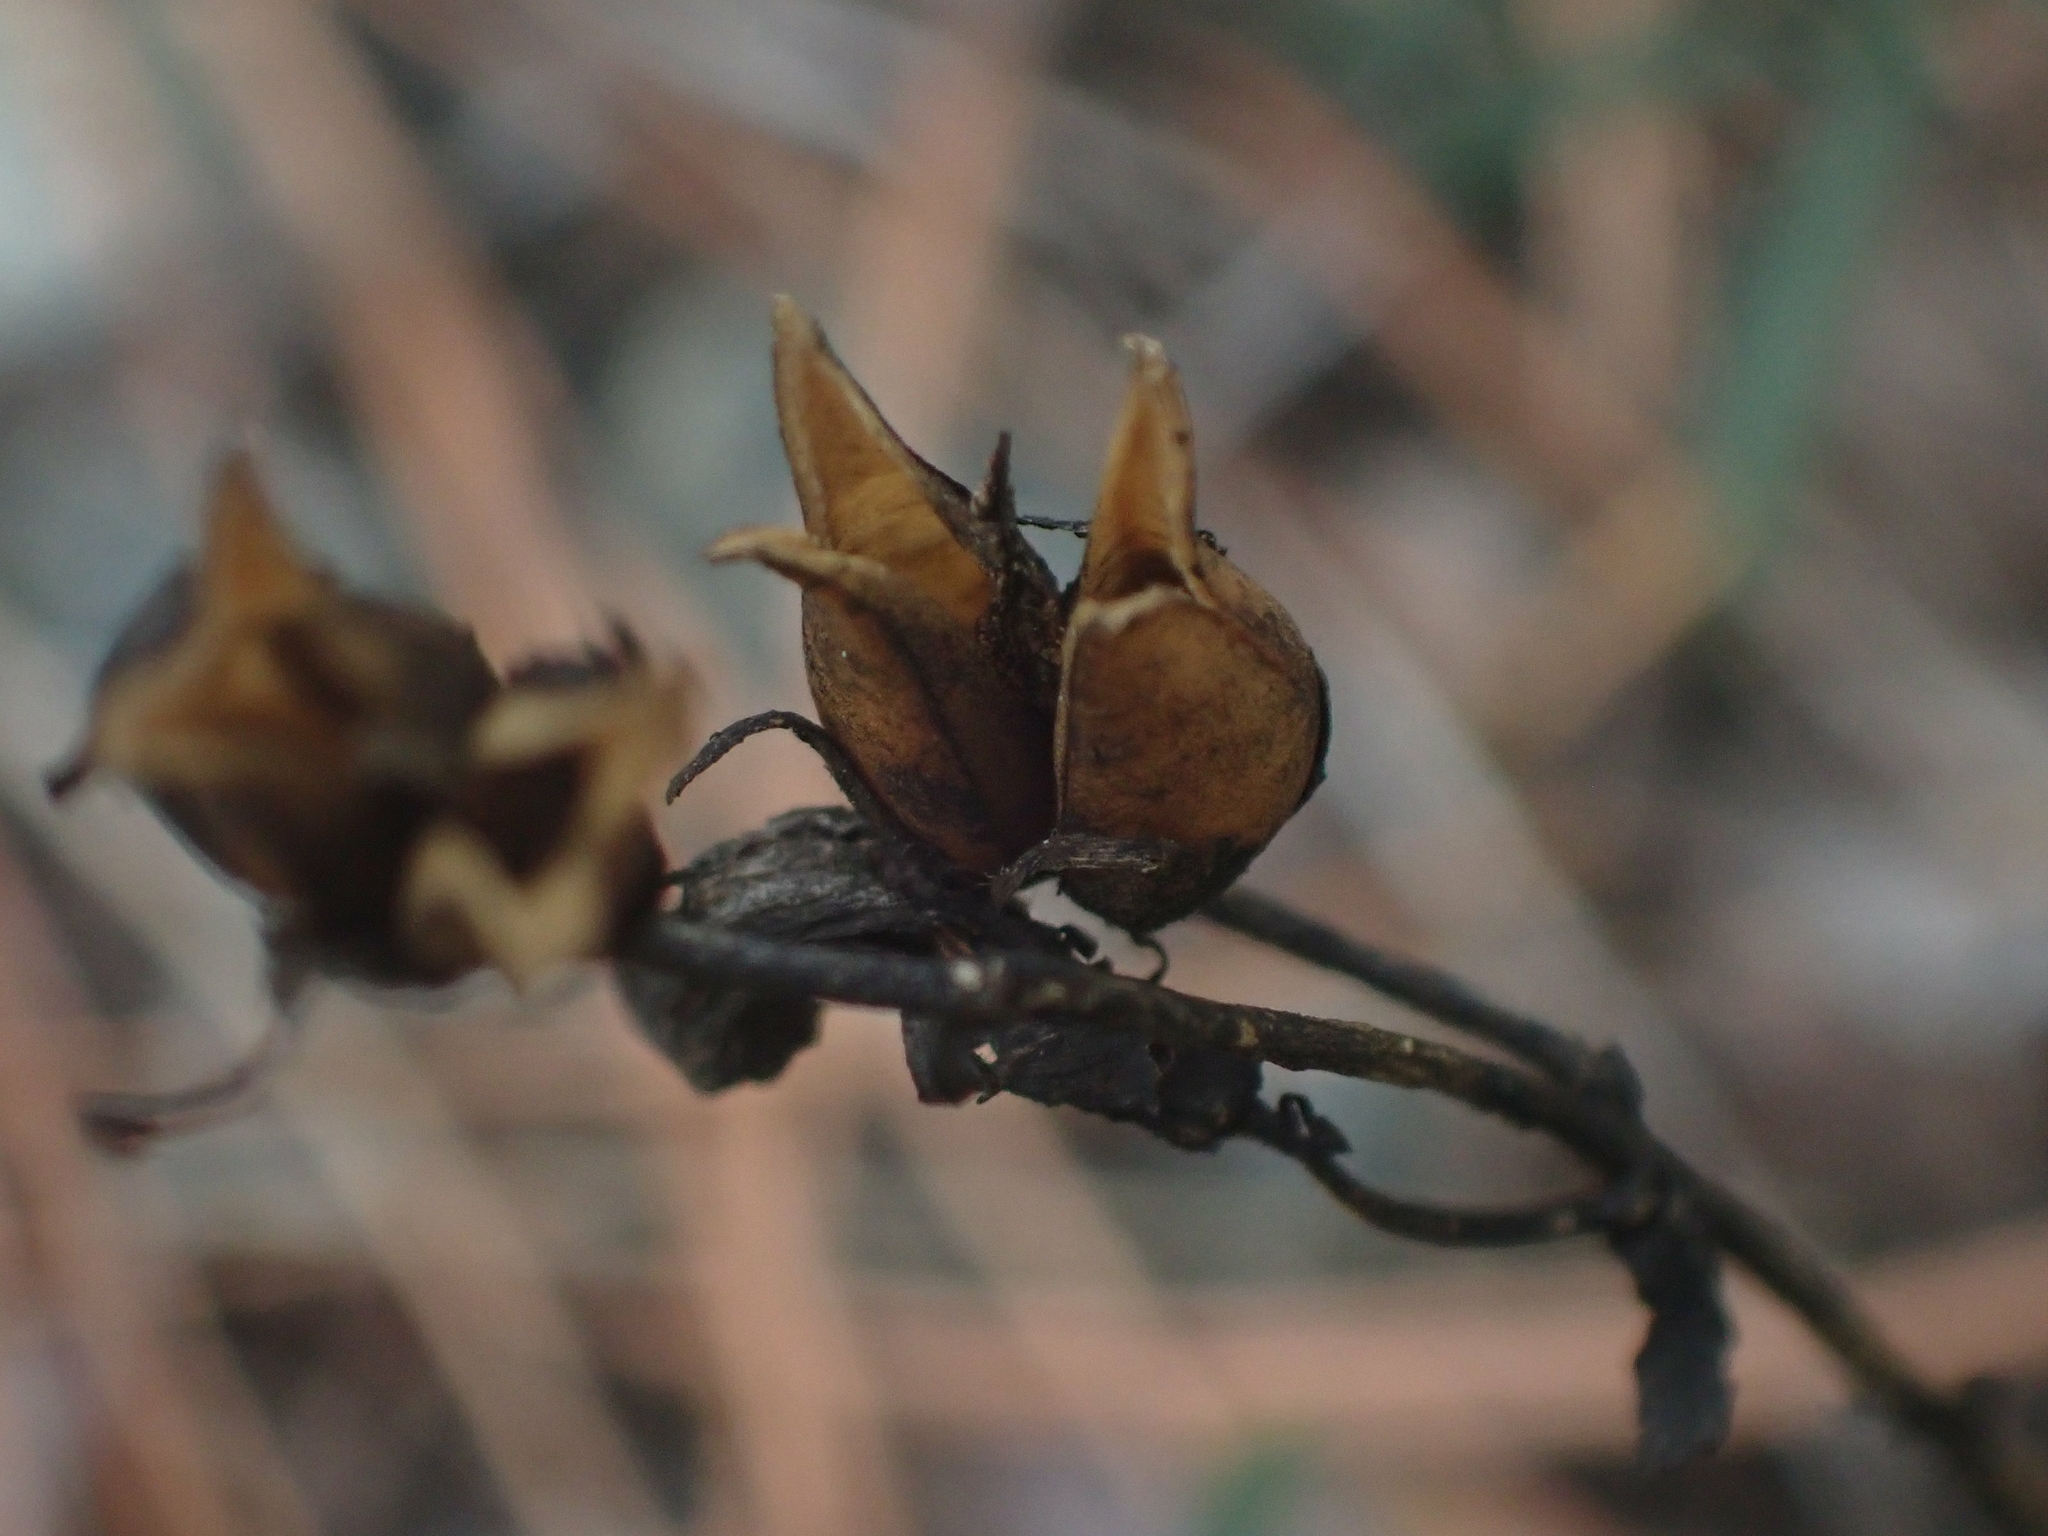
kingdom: Plantae
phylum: Tracheophyta
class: Magnoliopsida
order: Lamiales
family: Plantaginaceae
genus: Penstemon
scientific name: Penstemon fruticosus
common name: Bush penstemon
